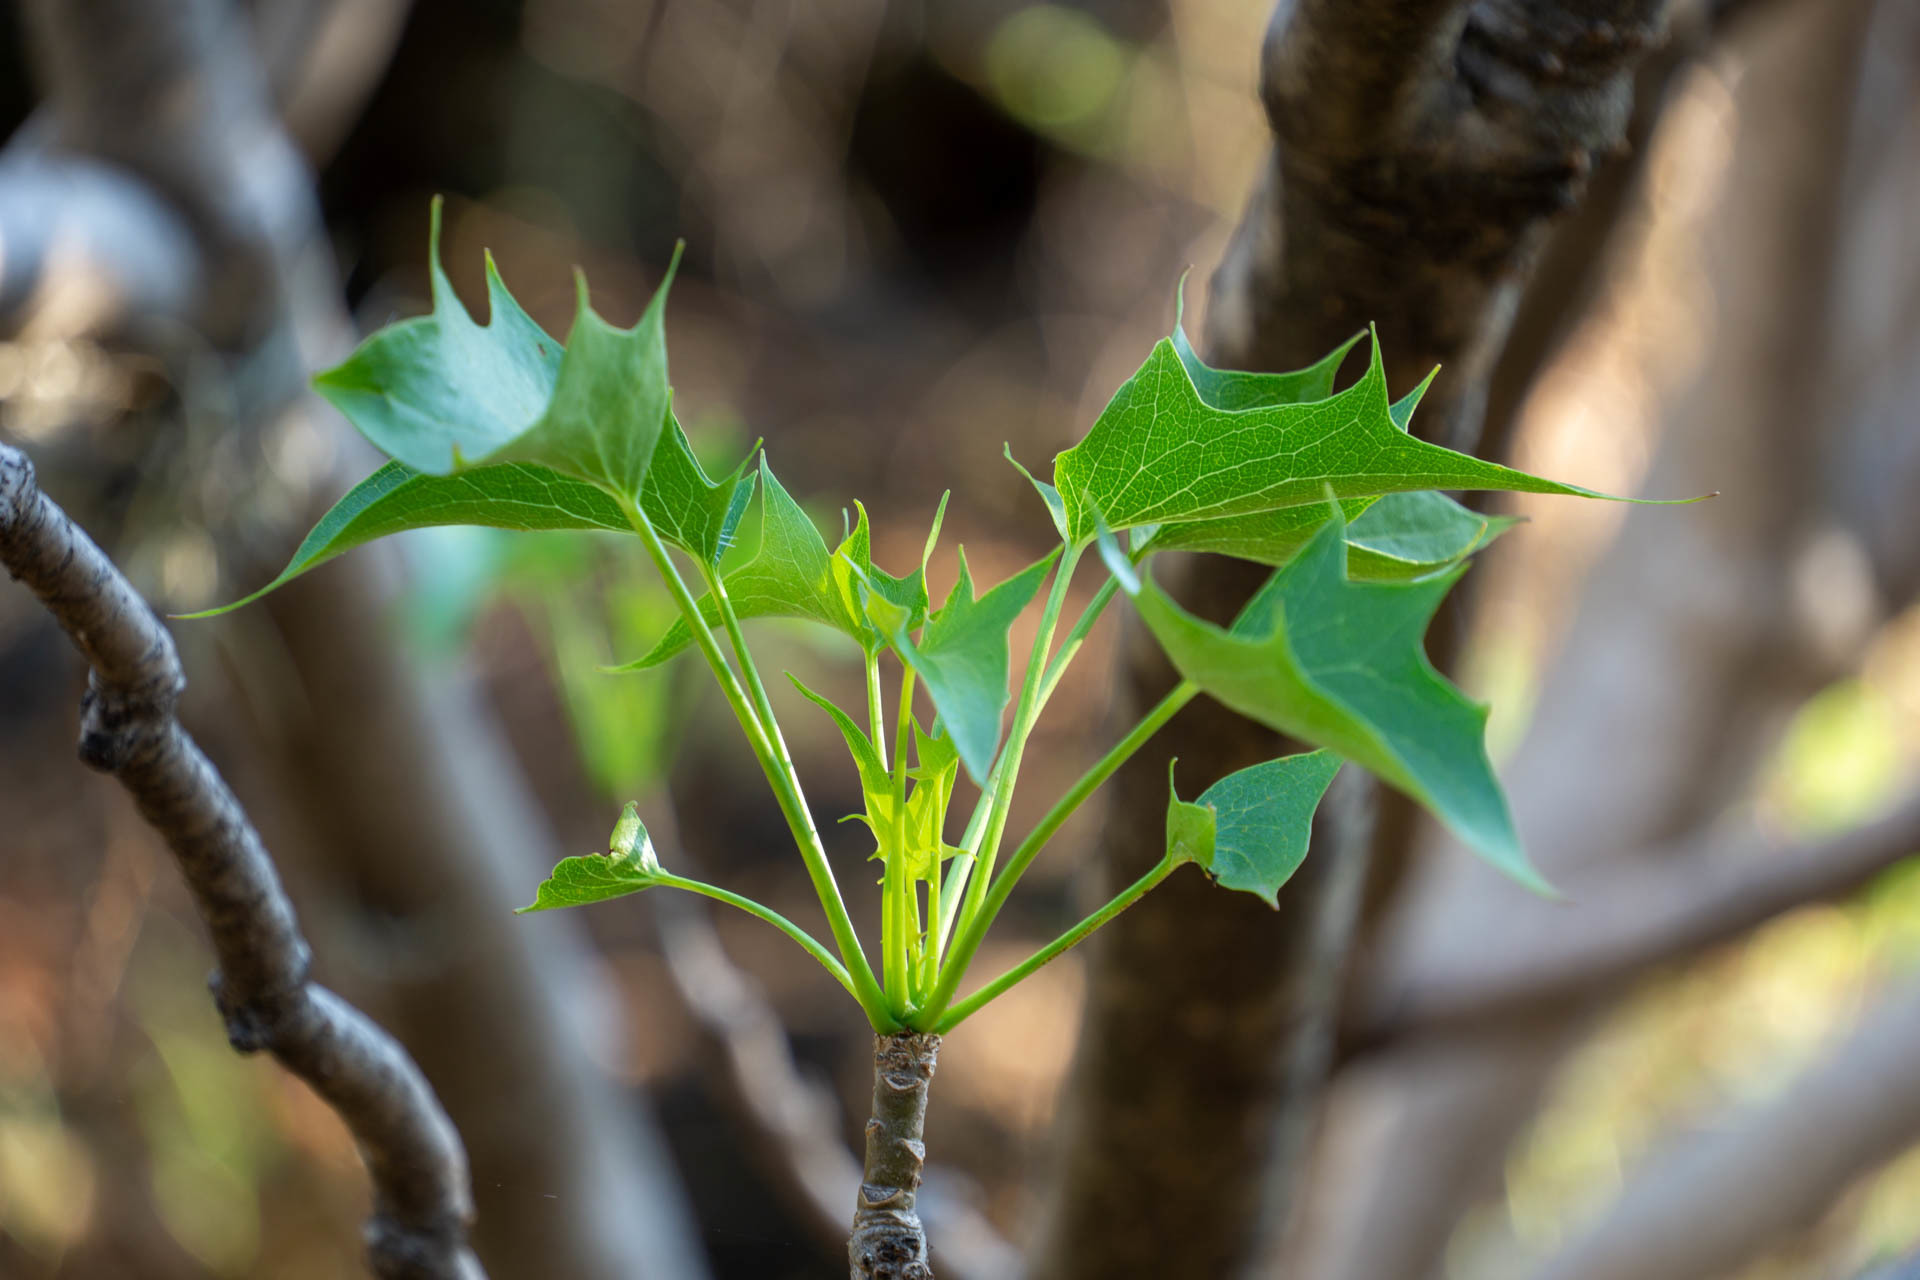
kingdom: Plantae
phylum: Tracheophyta
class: Magnoliopsida
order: Asterales
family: Asteraceae
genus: Pittocaulon
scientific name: Pittocaulon praecox
